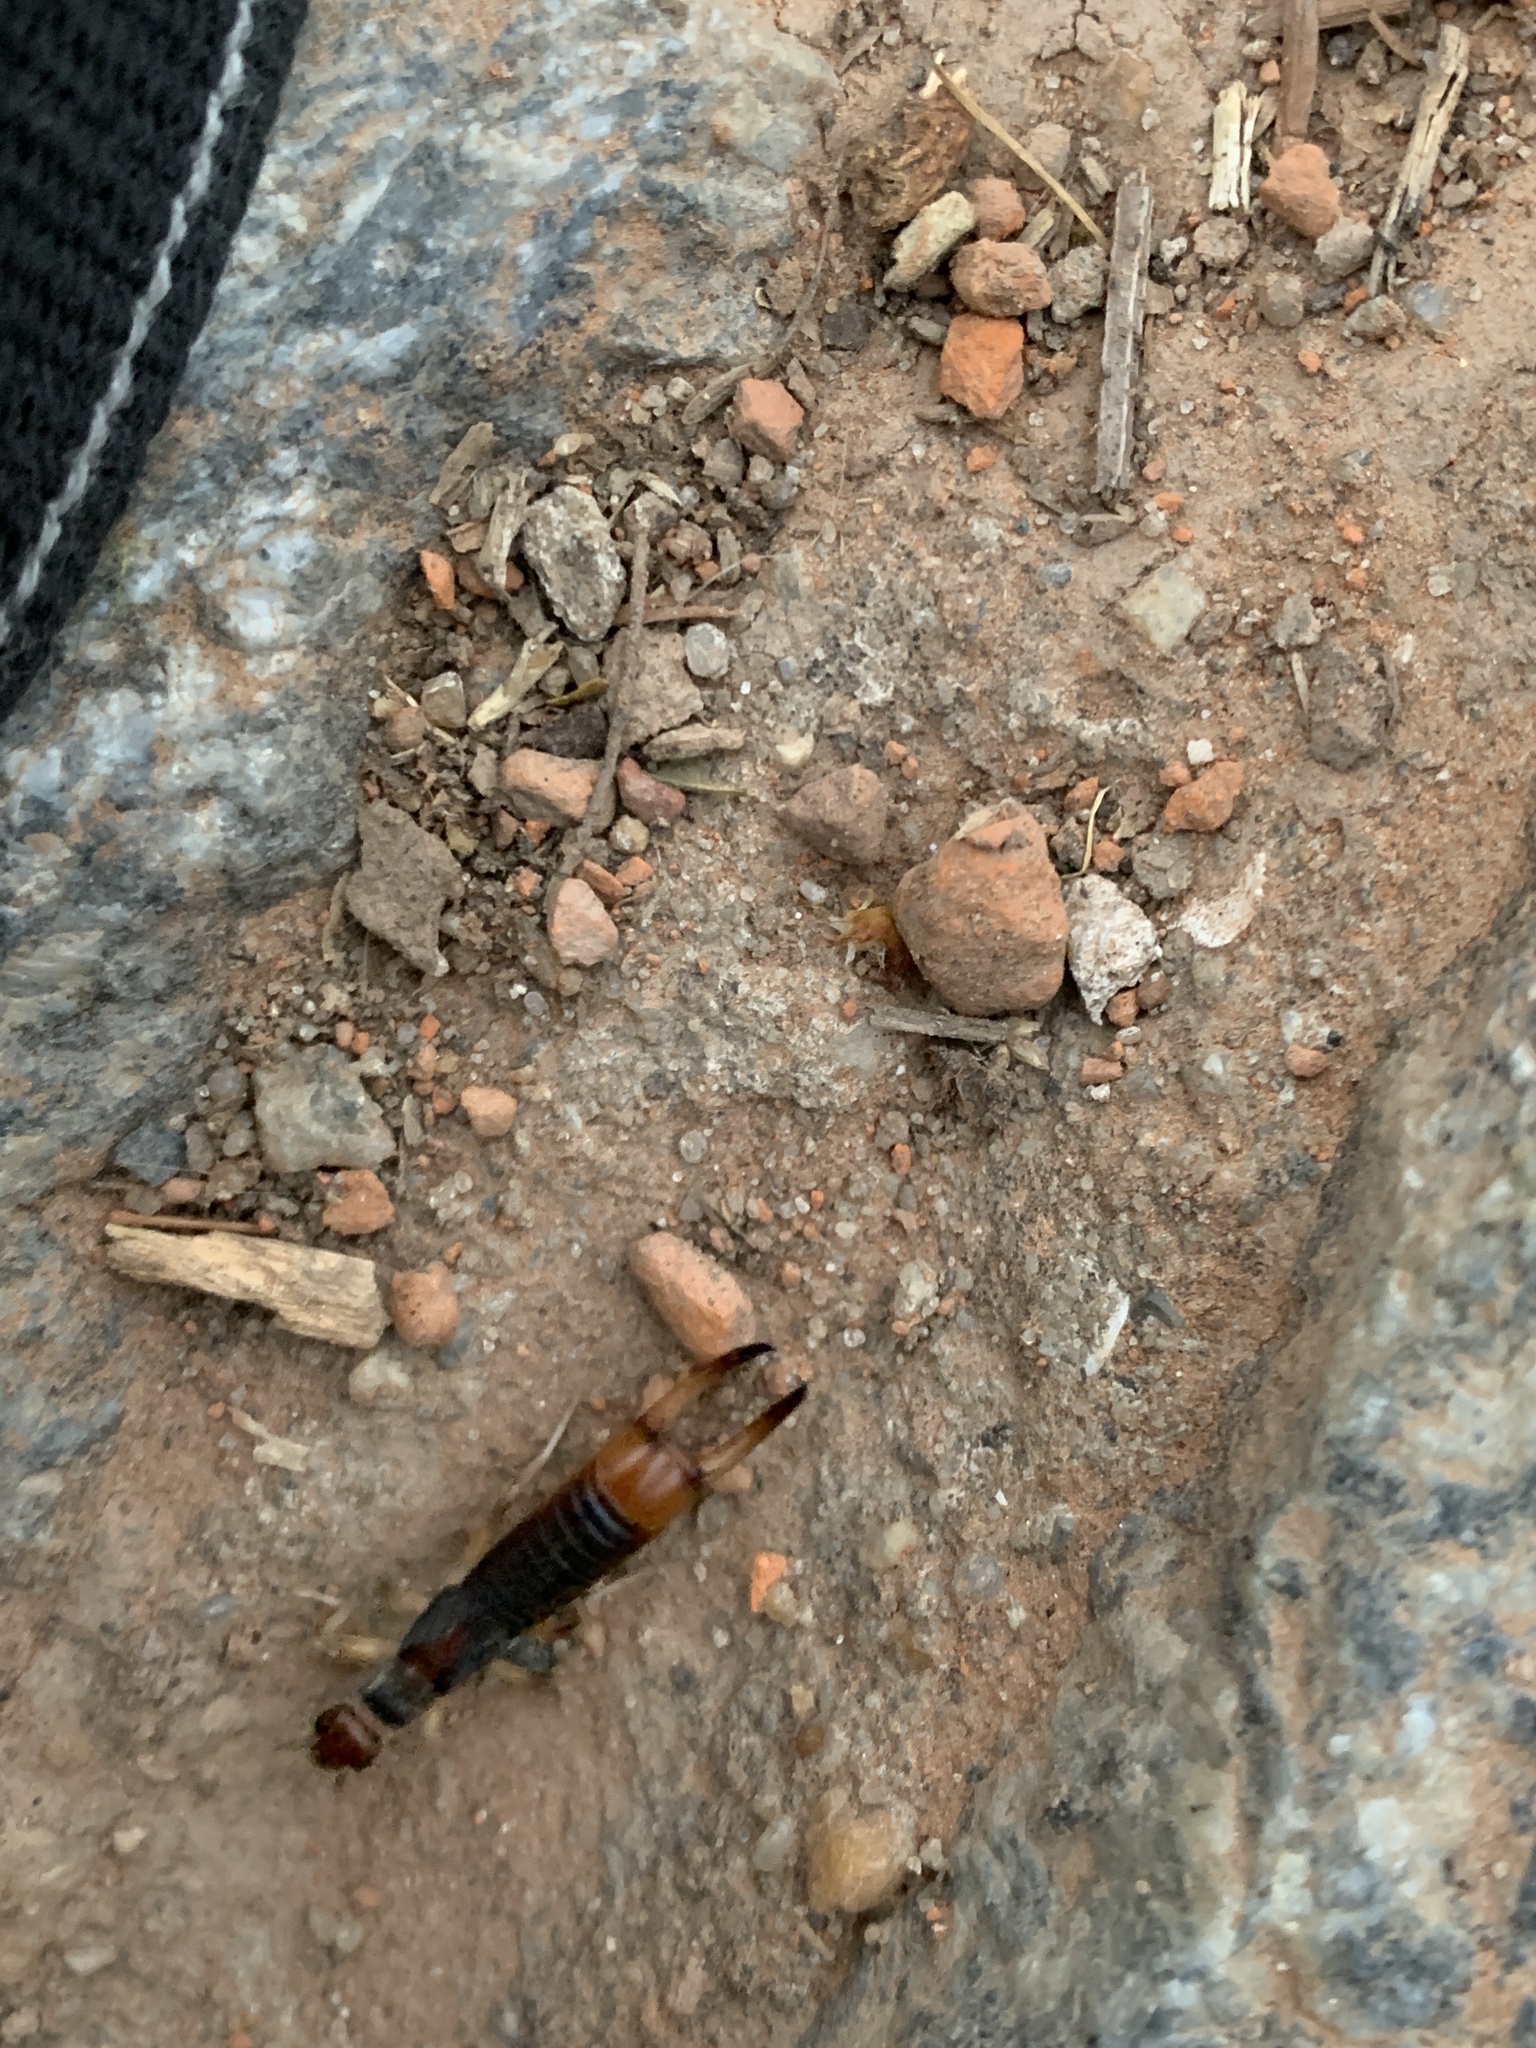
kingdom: Animalia
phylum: Arthropoda
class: Insecta
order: Dermaptera
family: Labiduridae
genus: Labidura
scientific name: Labidura riparia
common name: Striped earwig
